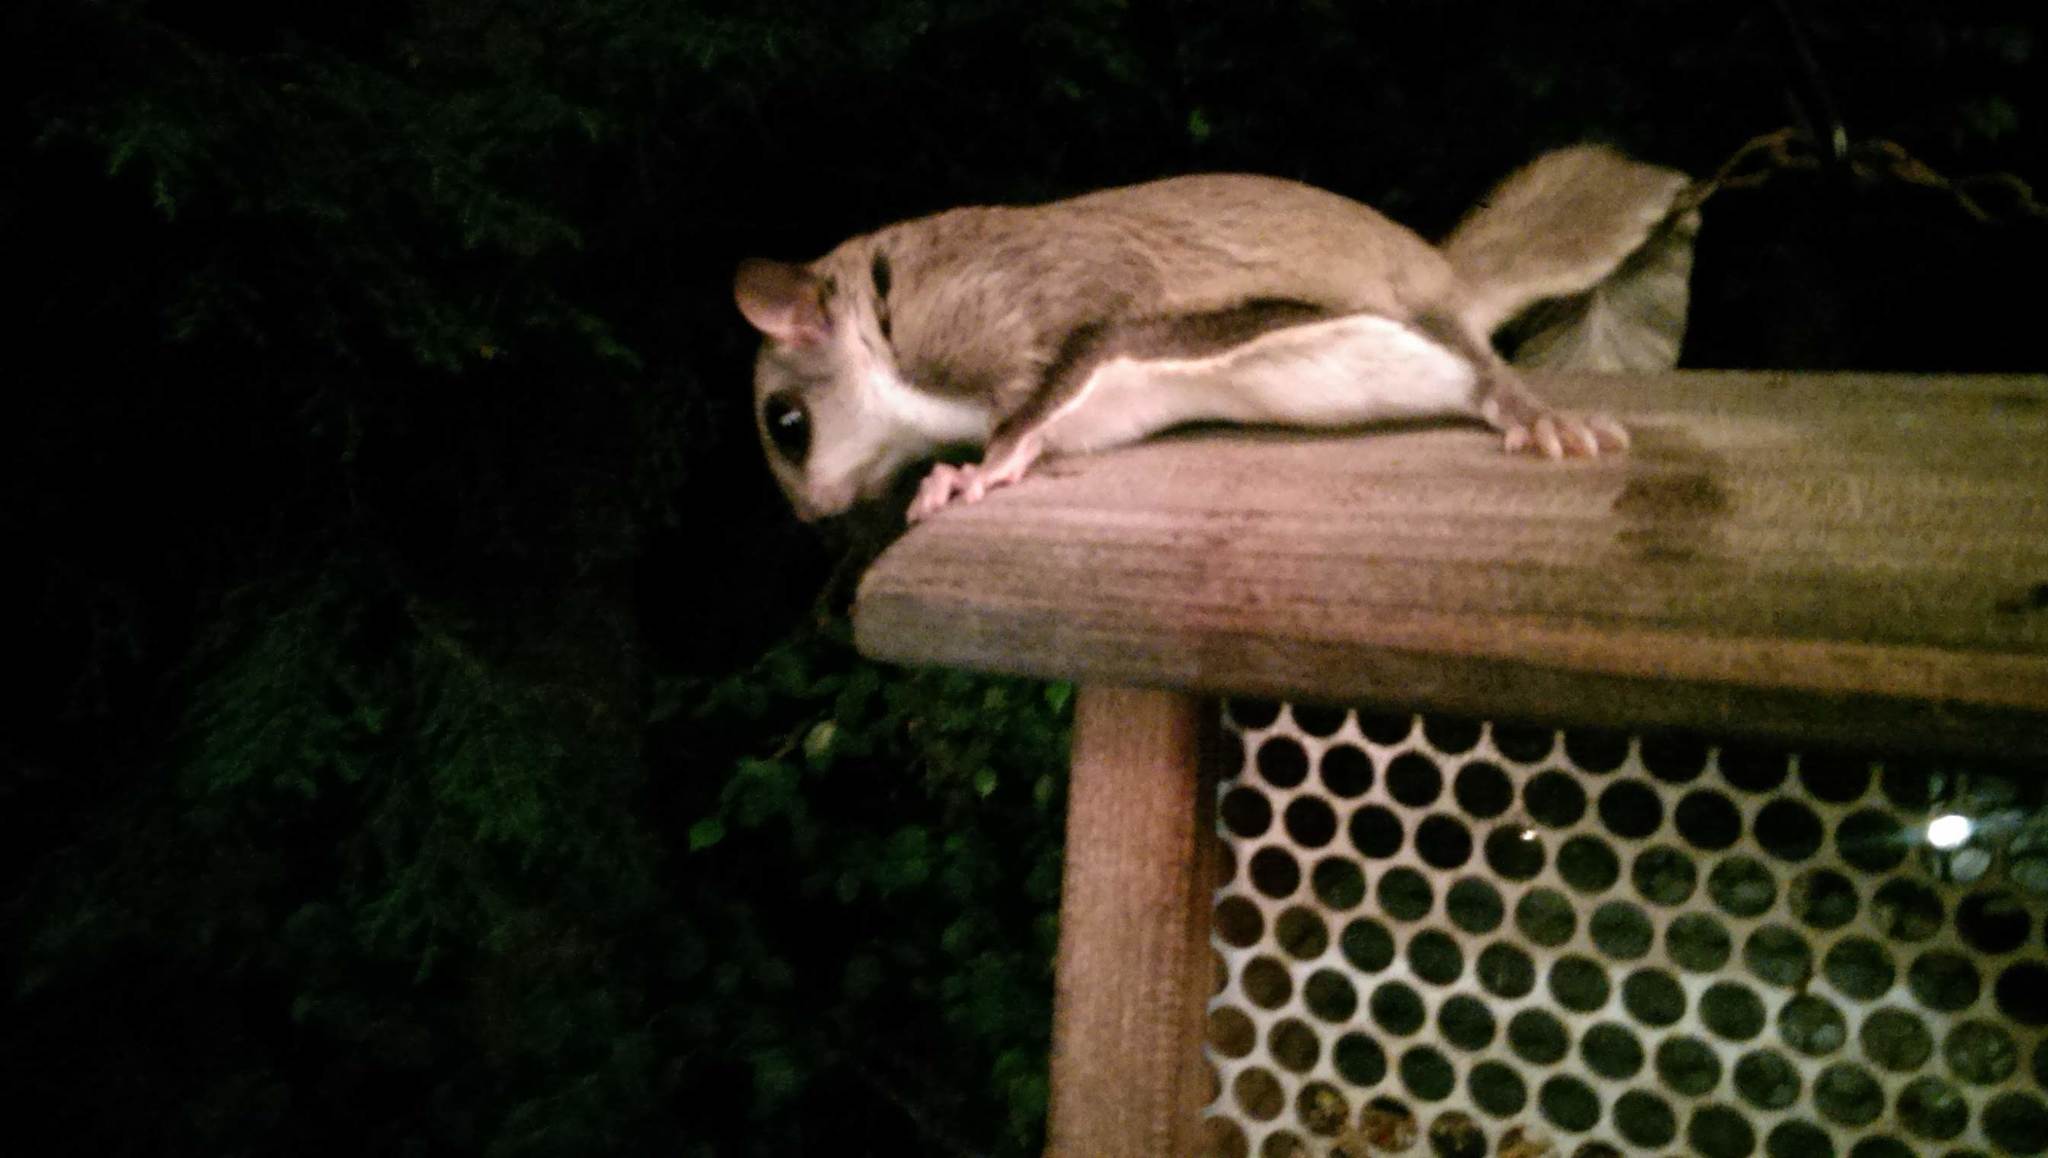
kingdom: Animalia
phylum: Chordata
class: Mammalia
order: Rodentia
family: Sciuridae
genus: Glaucomys
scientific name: Glaucomys sabrinus
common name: Northern flying squirrel
